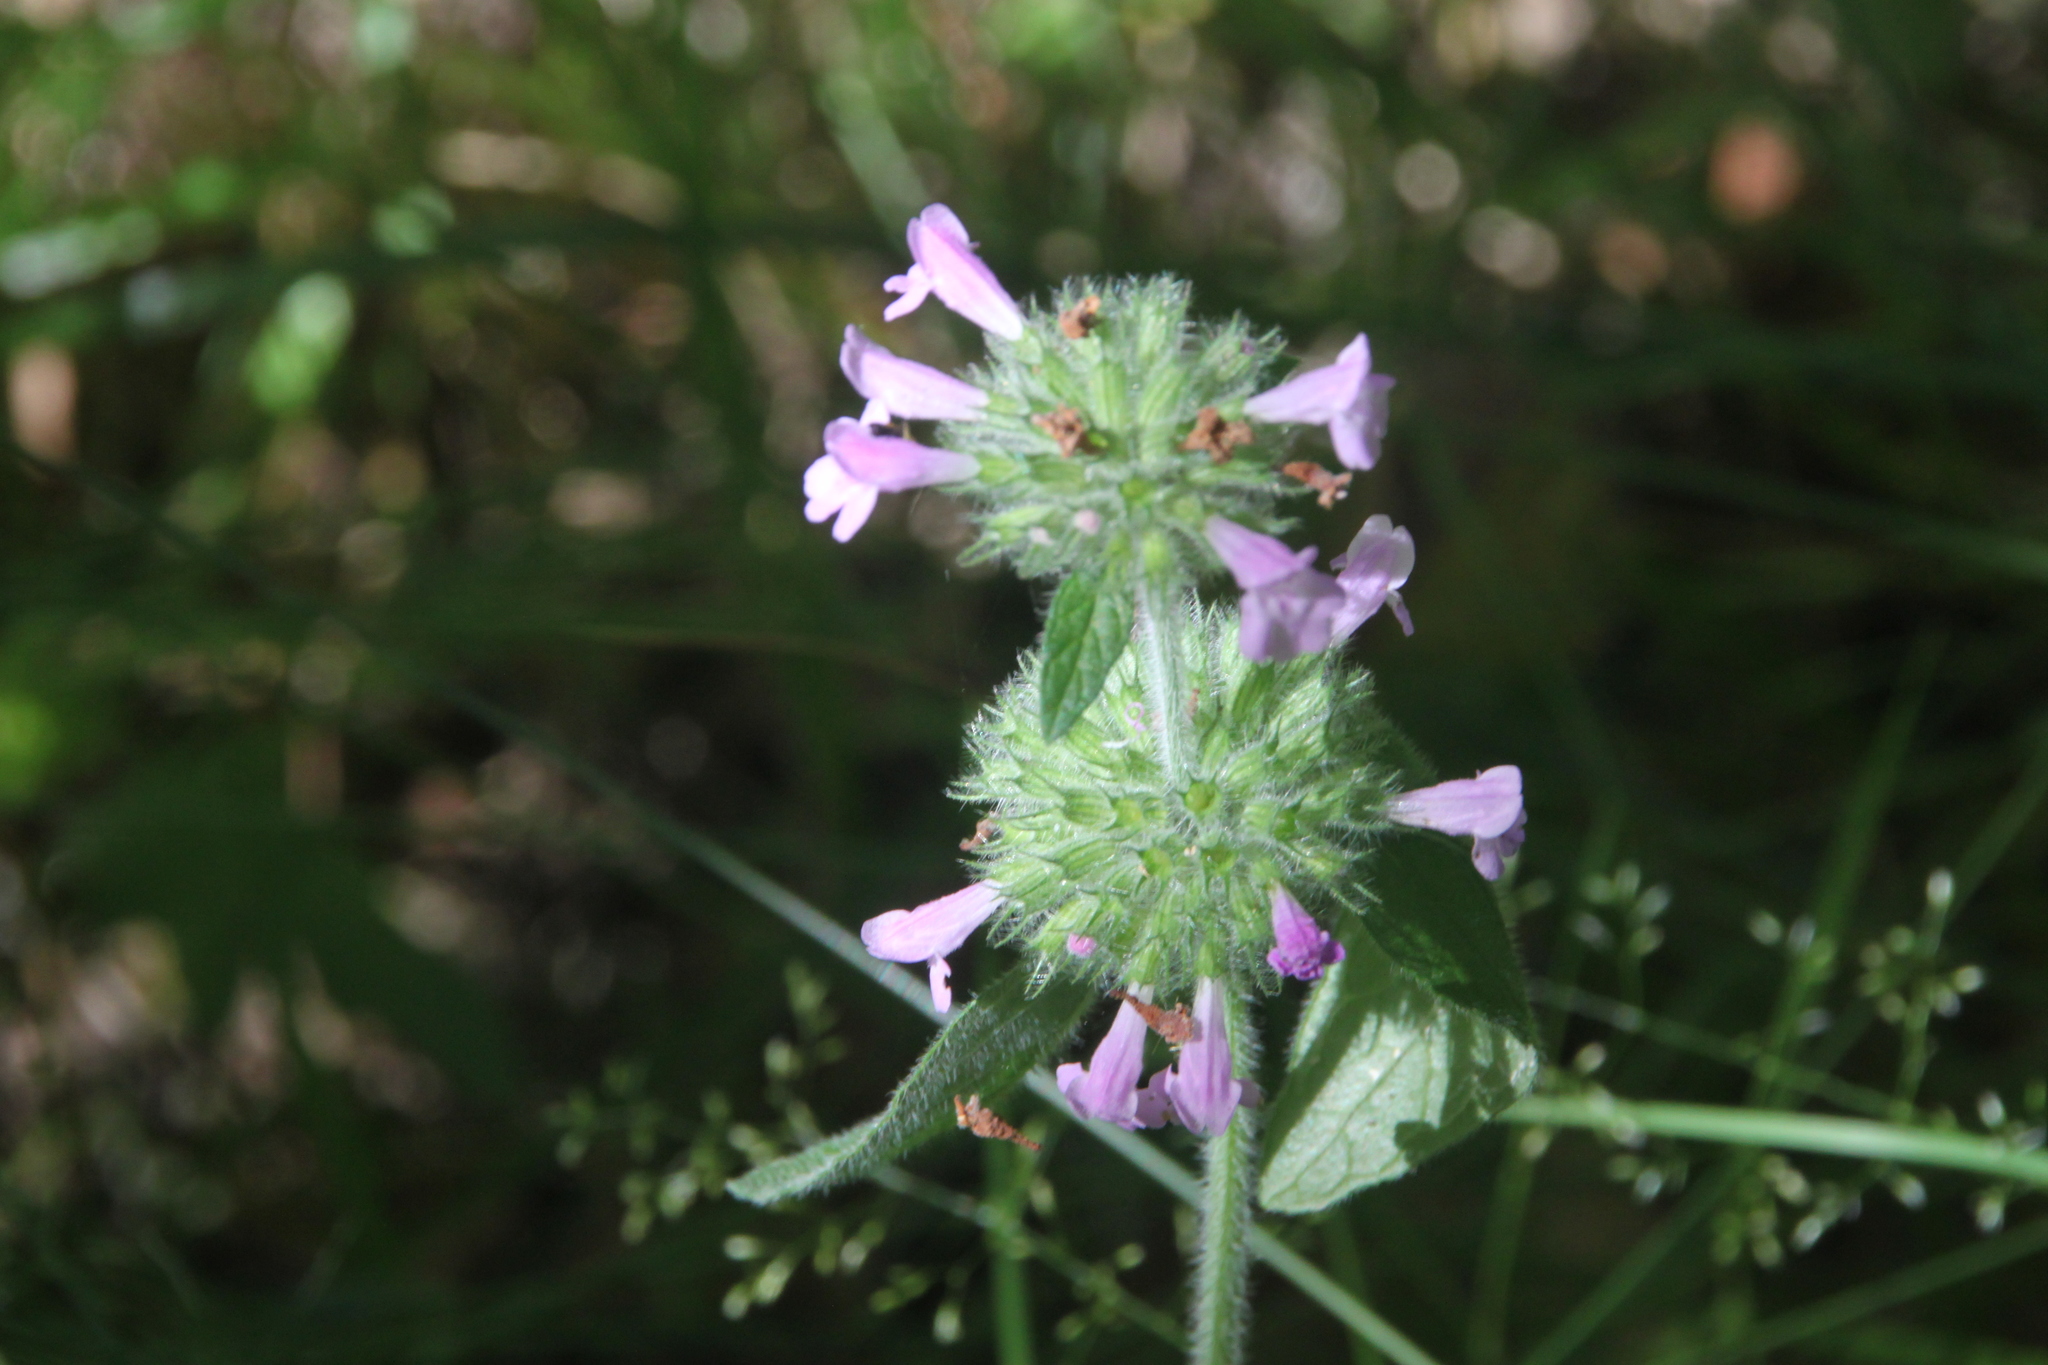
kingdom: Plantae
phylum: Tracheophyta
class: Magnoliopsida
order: Lamiales
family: Lamiaceae
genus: Clinopodium
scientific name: Clinopodium vulgare
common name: Wild basil
